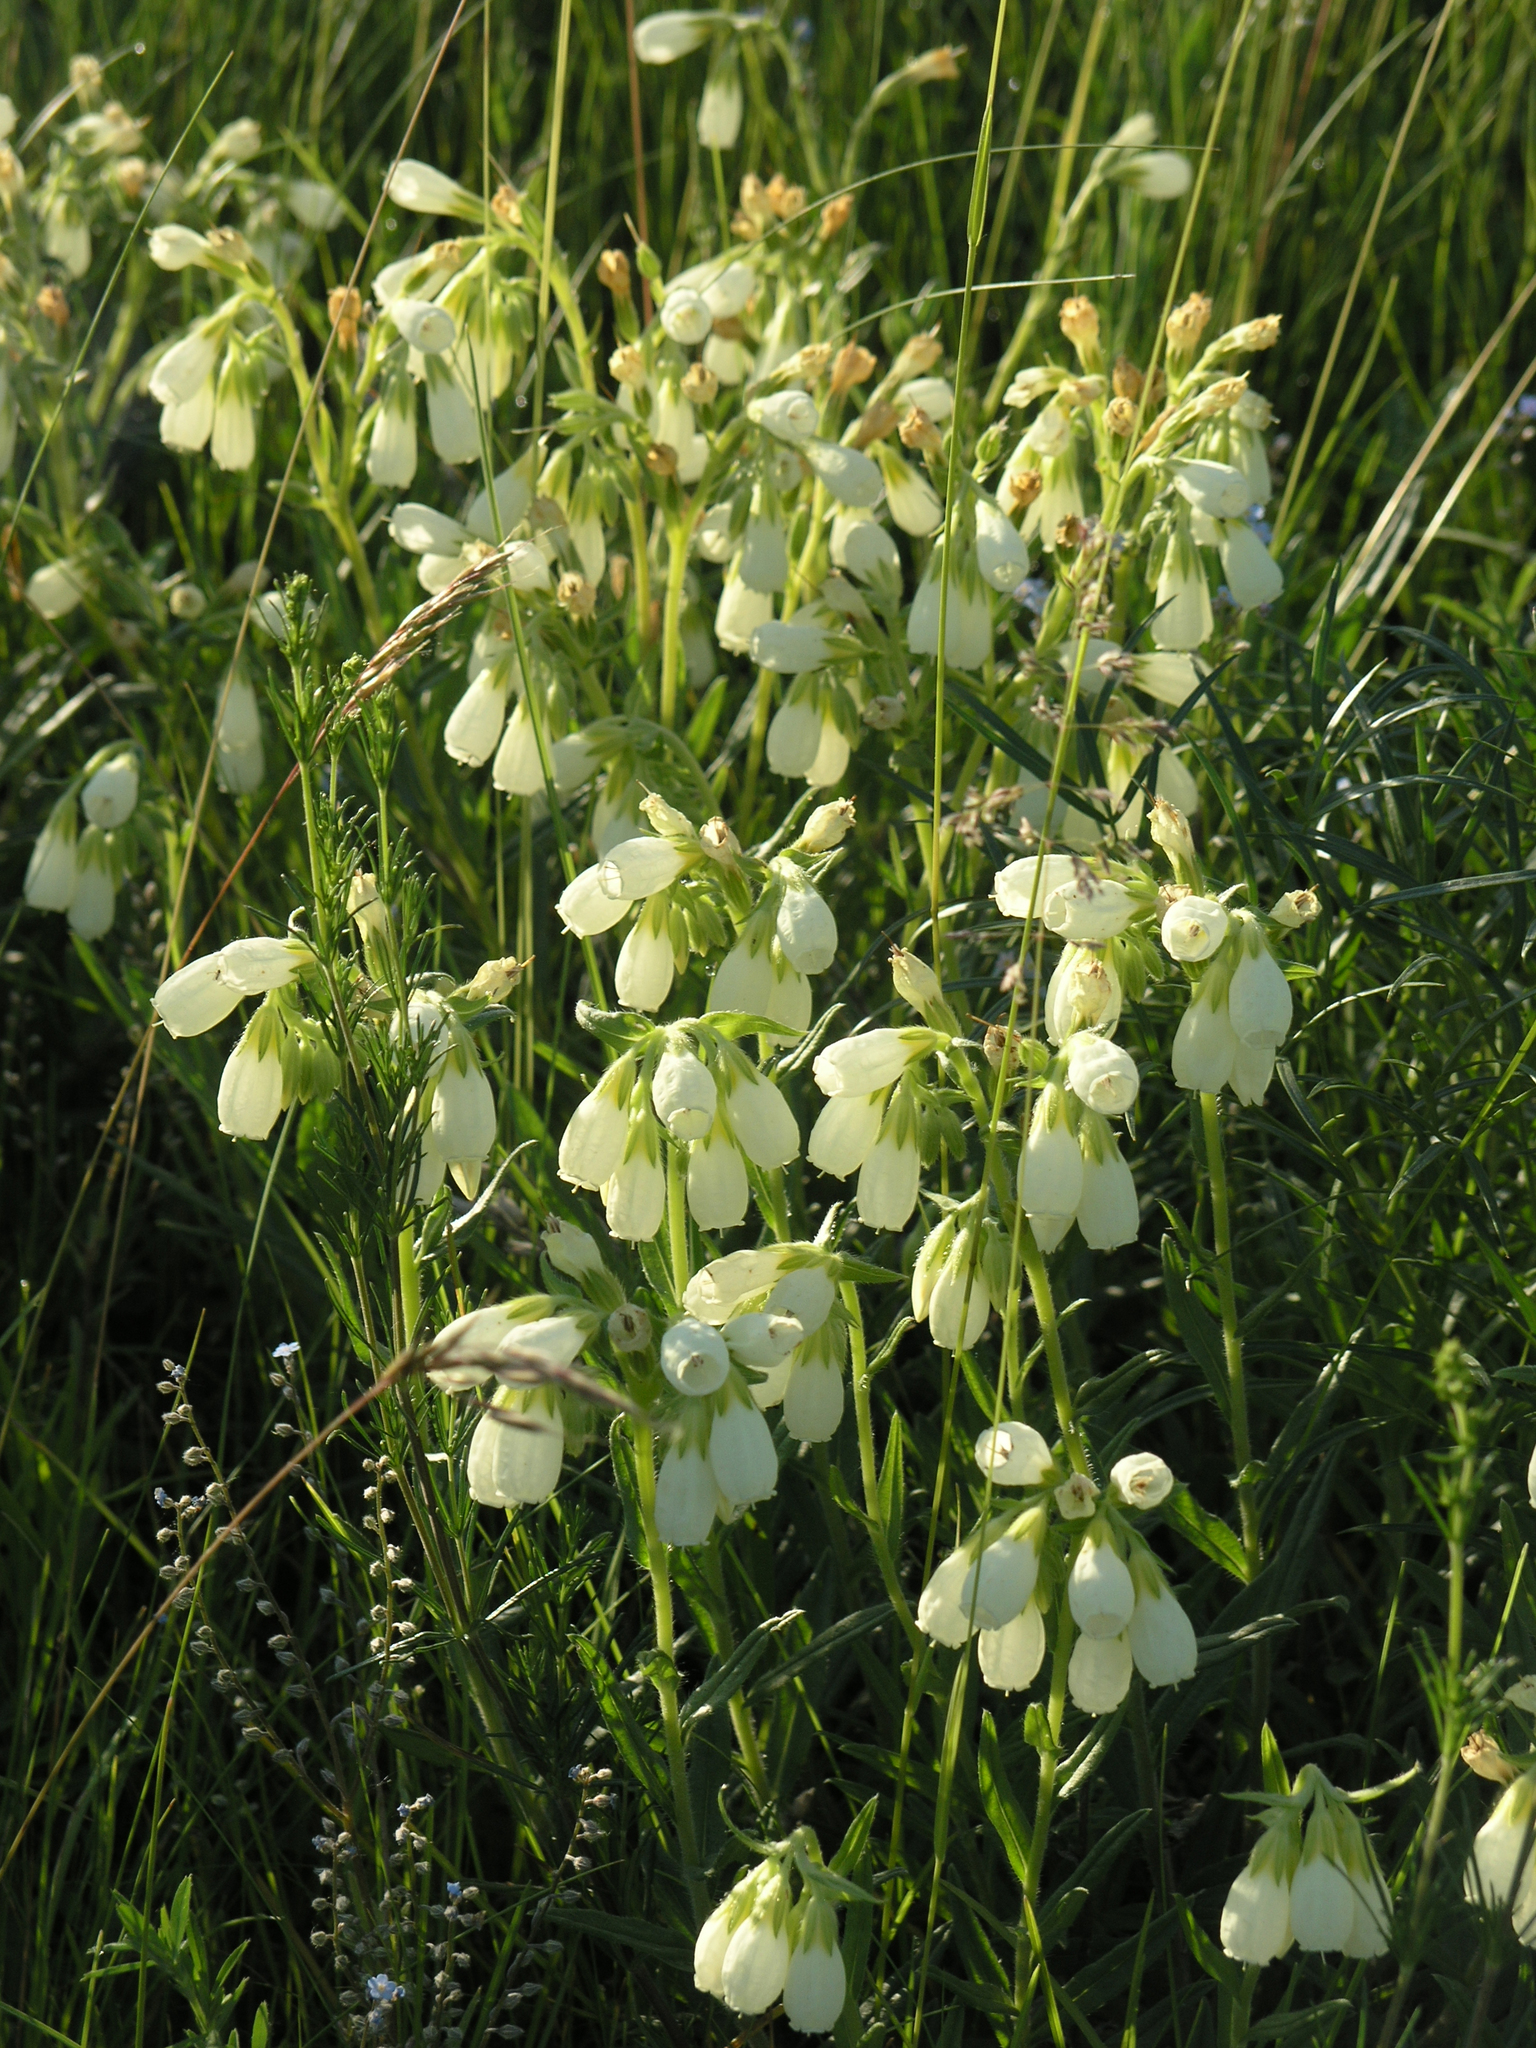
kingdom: Plantae
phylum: Tracheophyta
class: Magnoliopsida
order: Boraginales
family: Boraginaceae
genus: Onosma
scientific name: Onosma simplicissima
